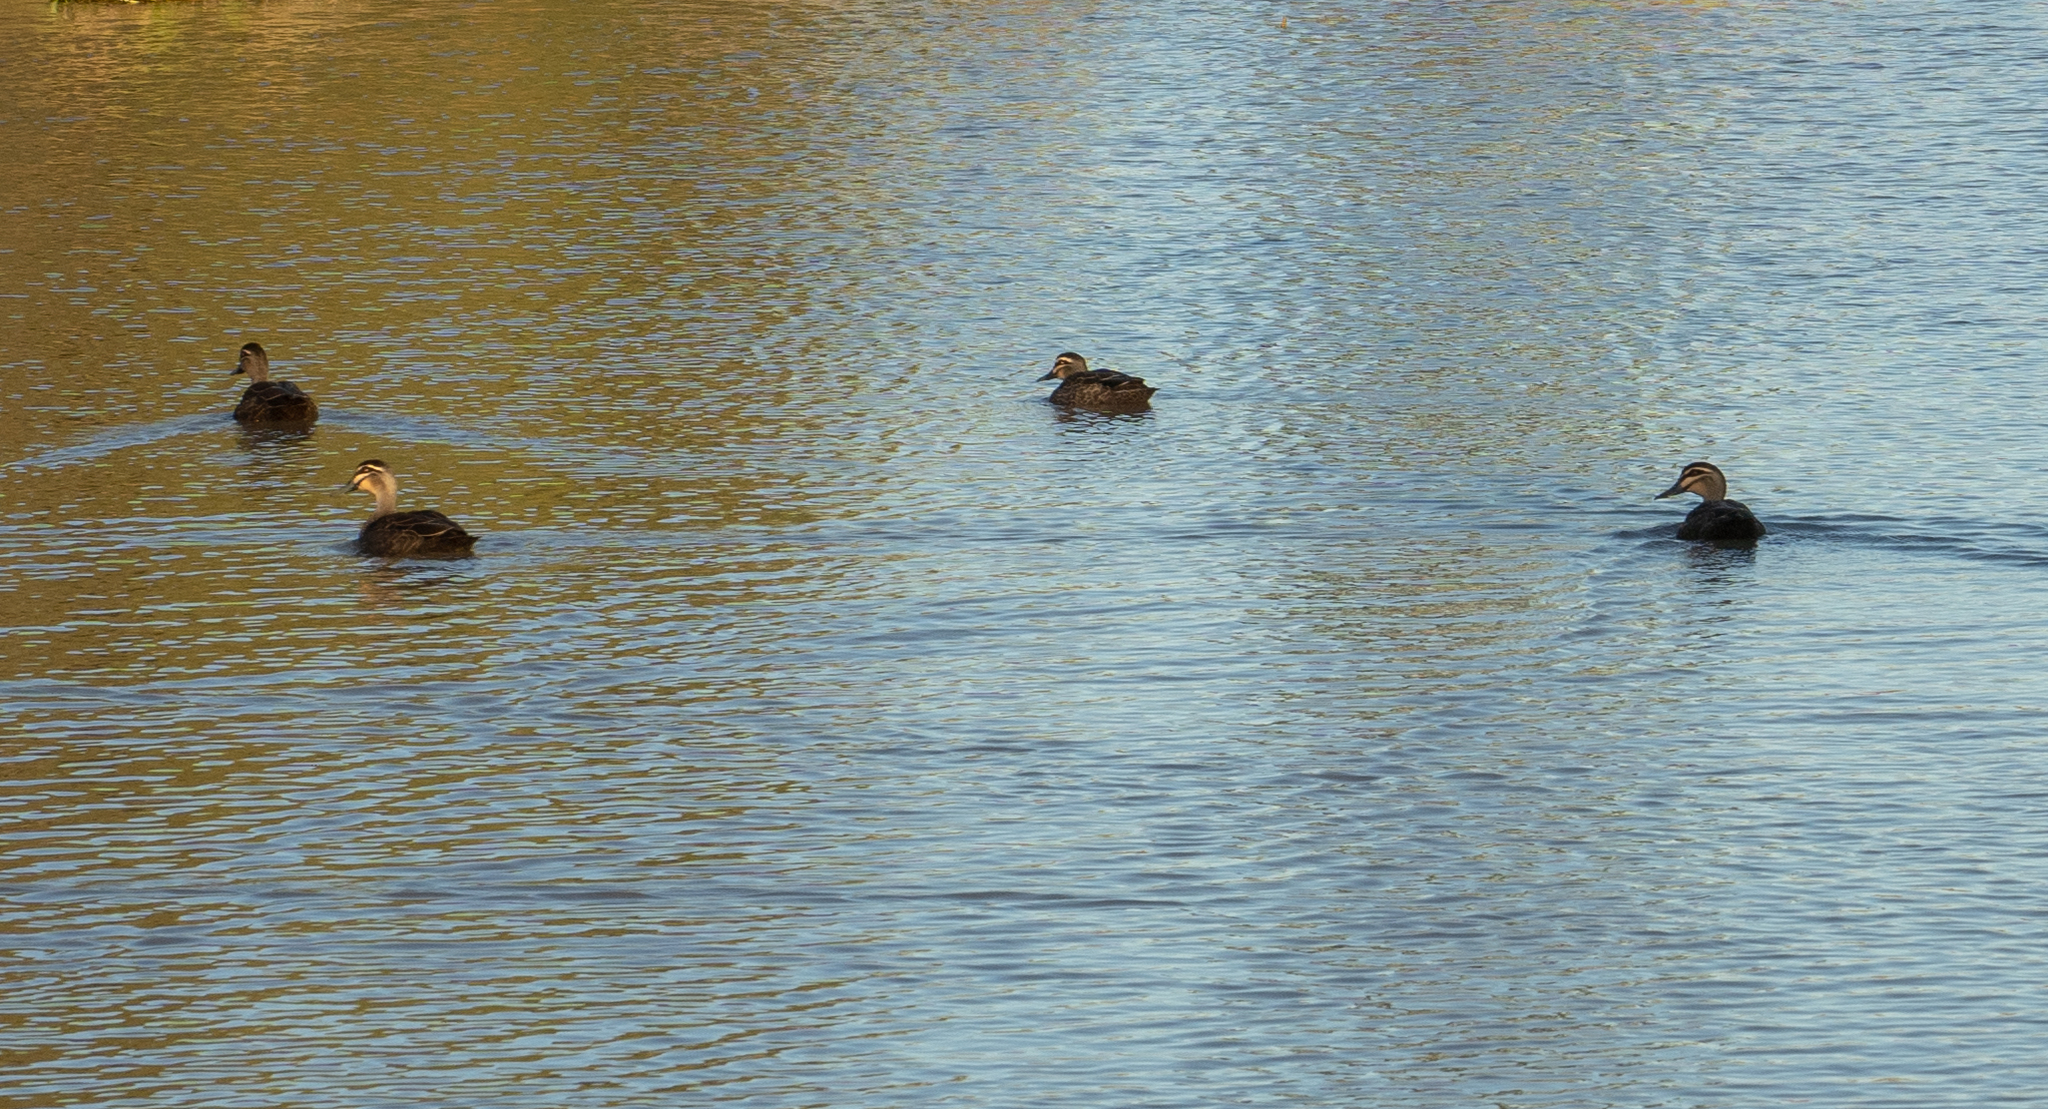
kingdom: Animalia
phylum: Chordata
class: Aves
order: Anseriformes
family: Anatidae
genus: Anas
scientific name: Anas superciliosa
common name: Pacific black duck
